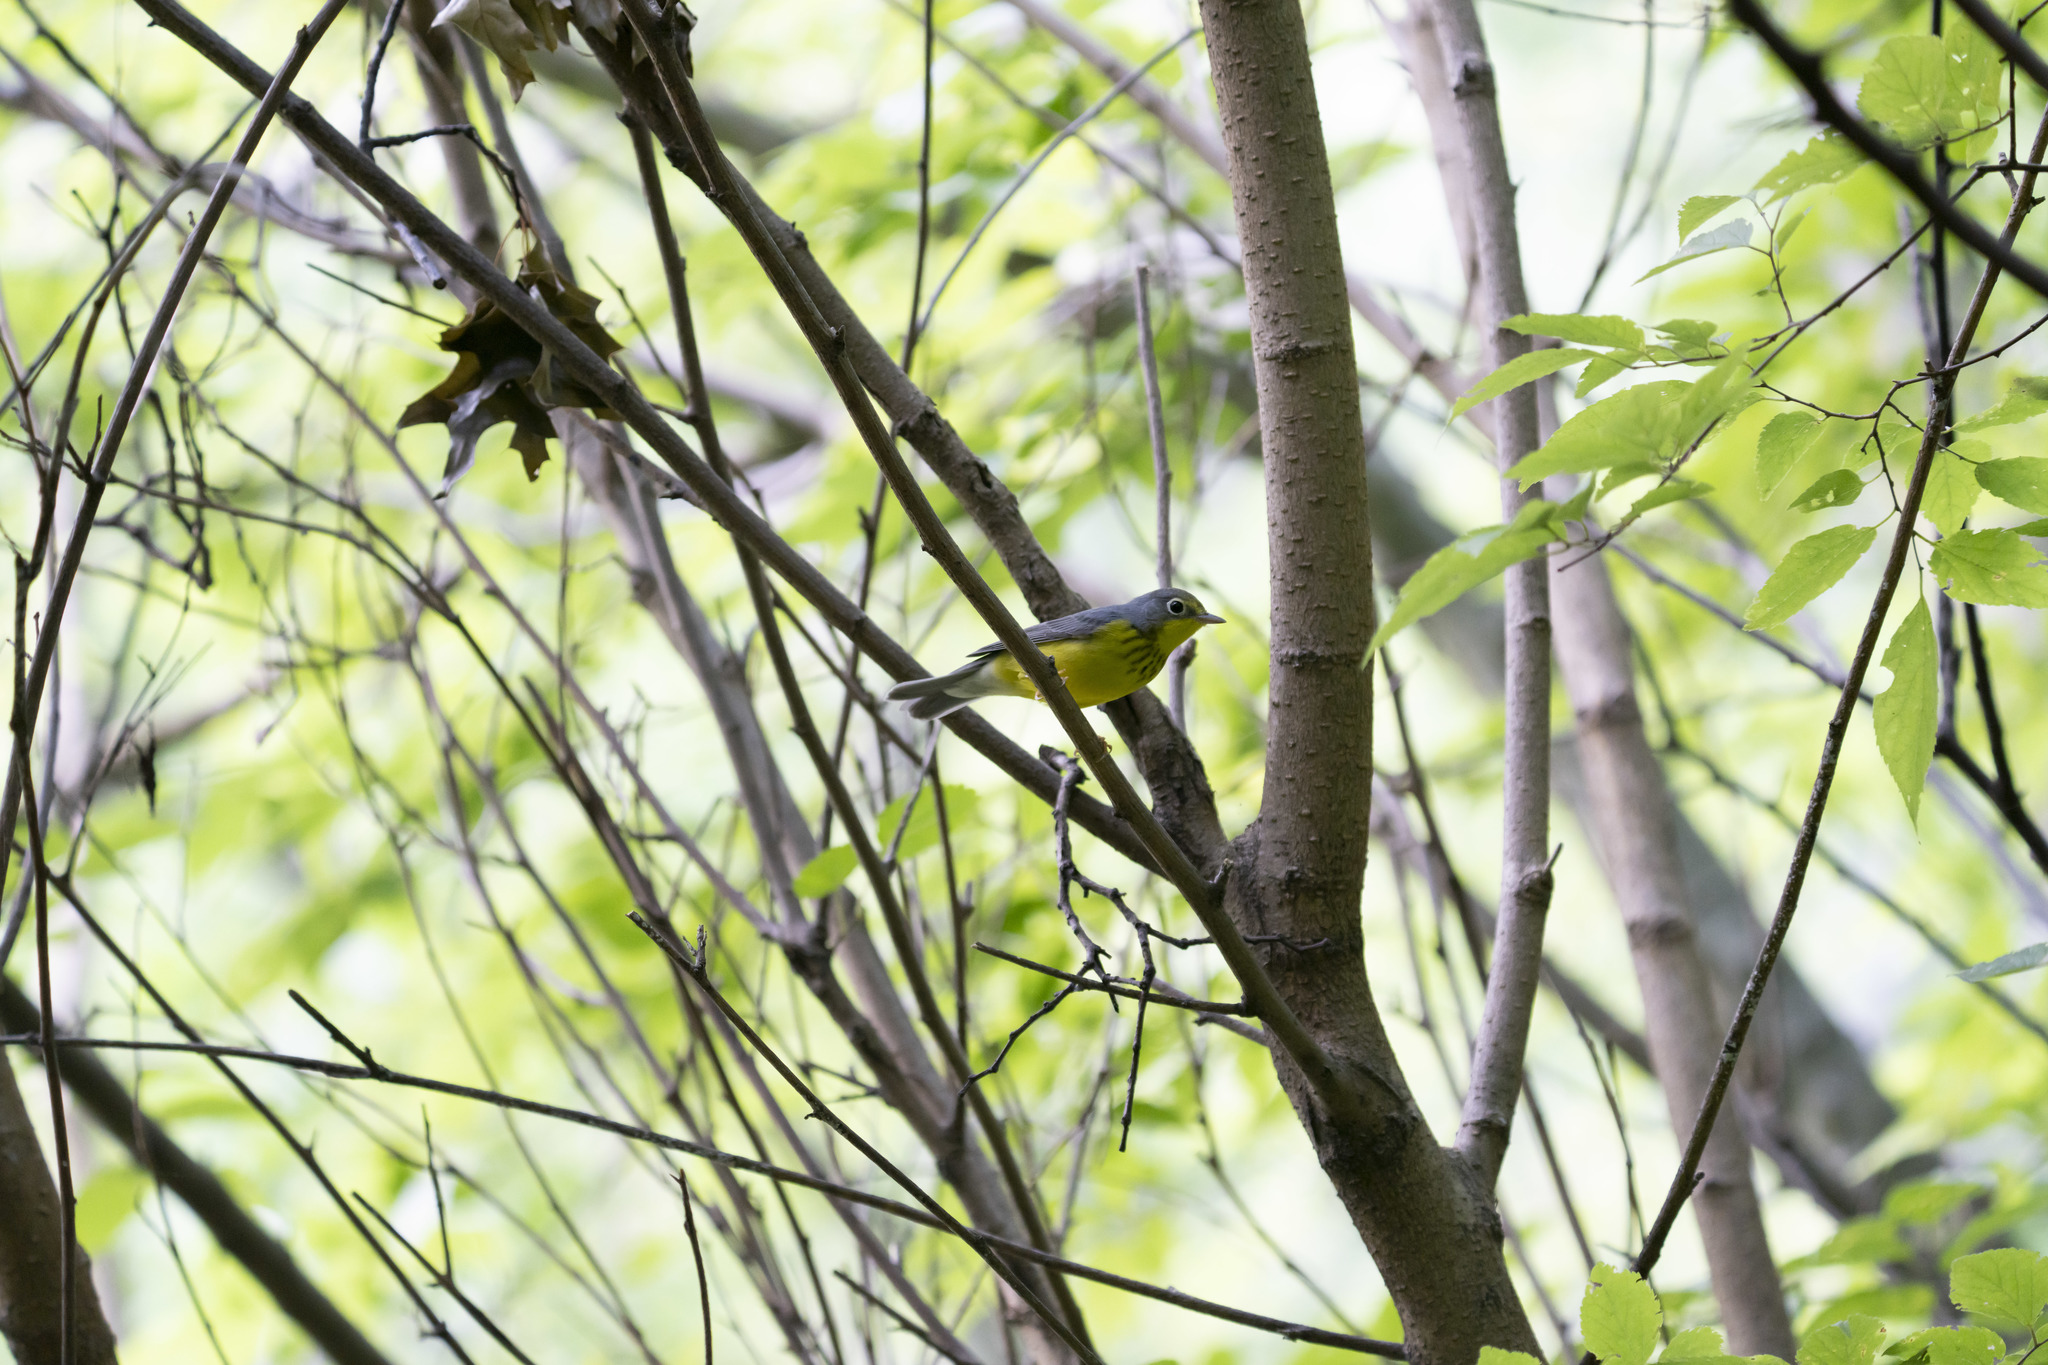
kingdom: Animalia
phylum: Chordata
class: Aves
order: Passeriformes
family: Parulidae
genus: Cardellina
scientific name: Cardellina canadensis
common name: Canada warbler
